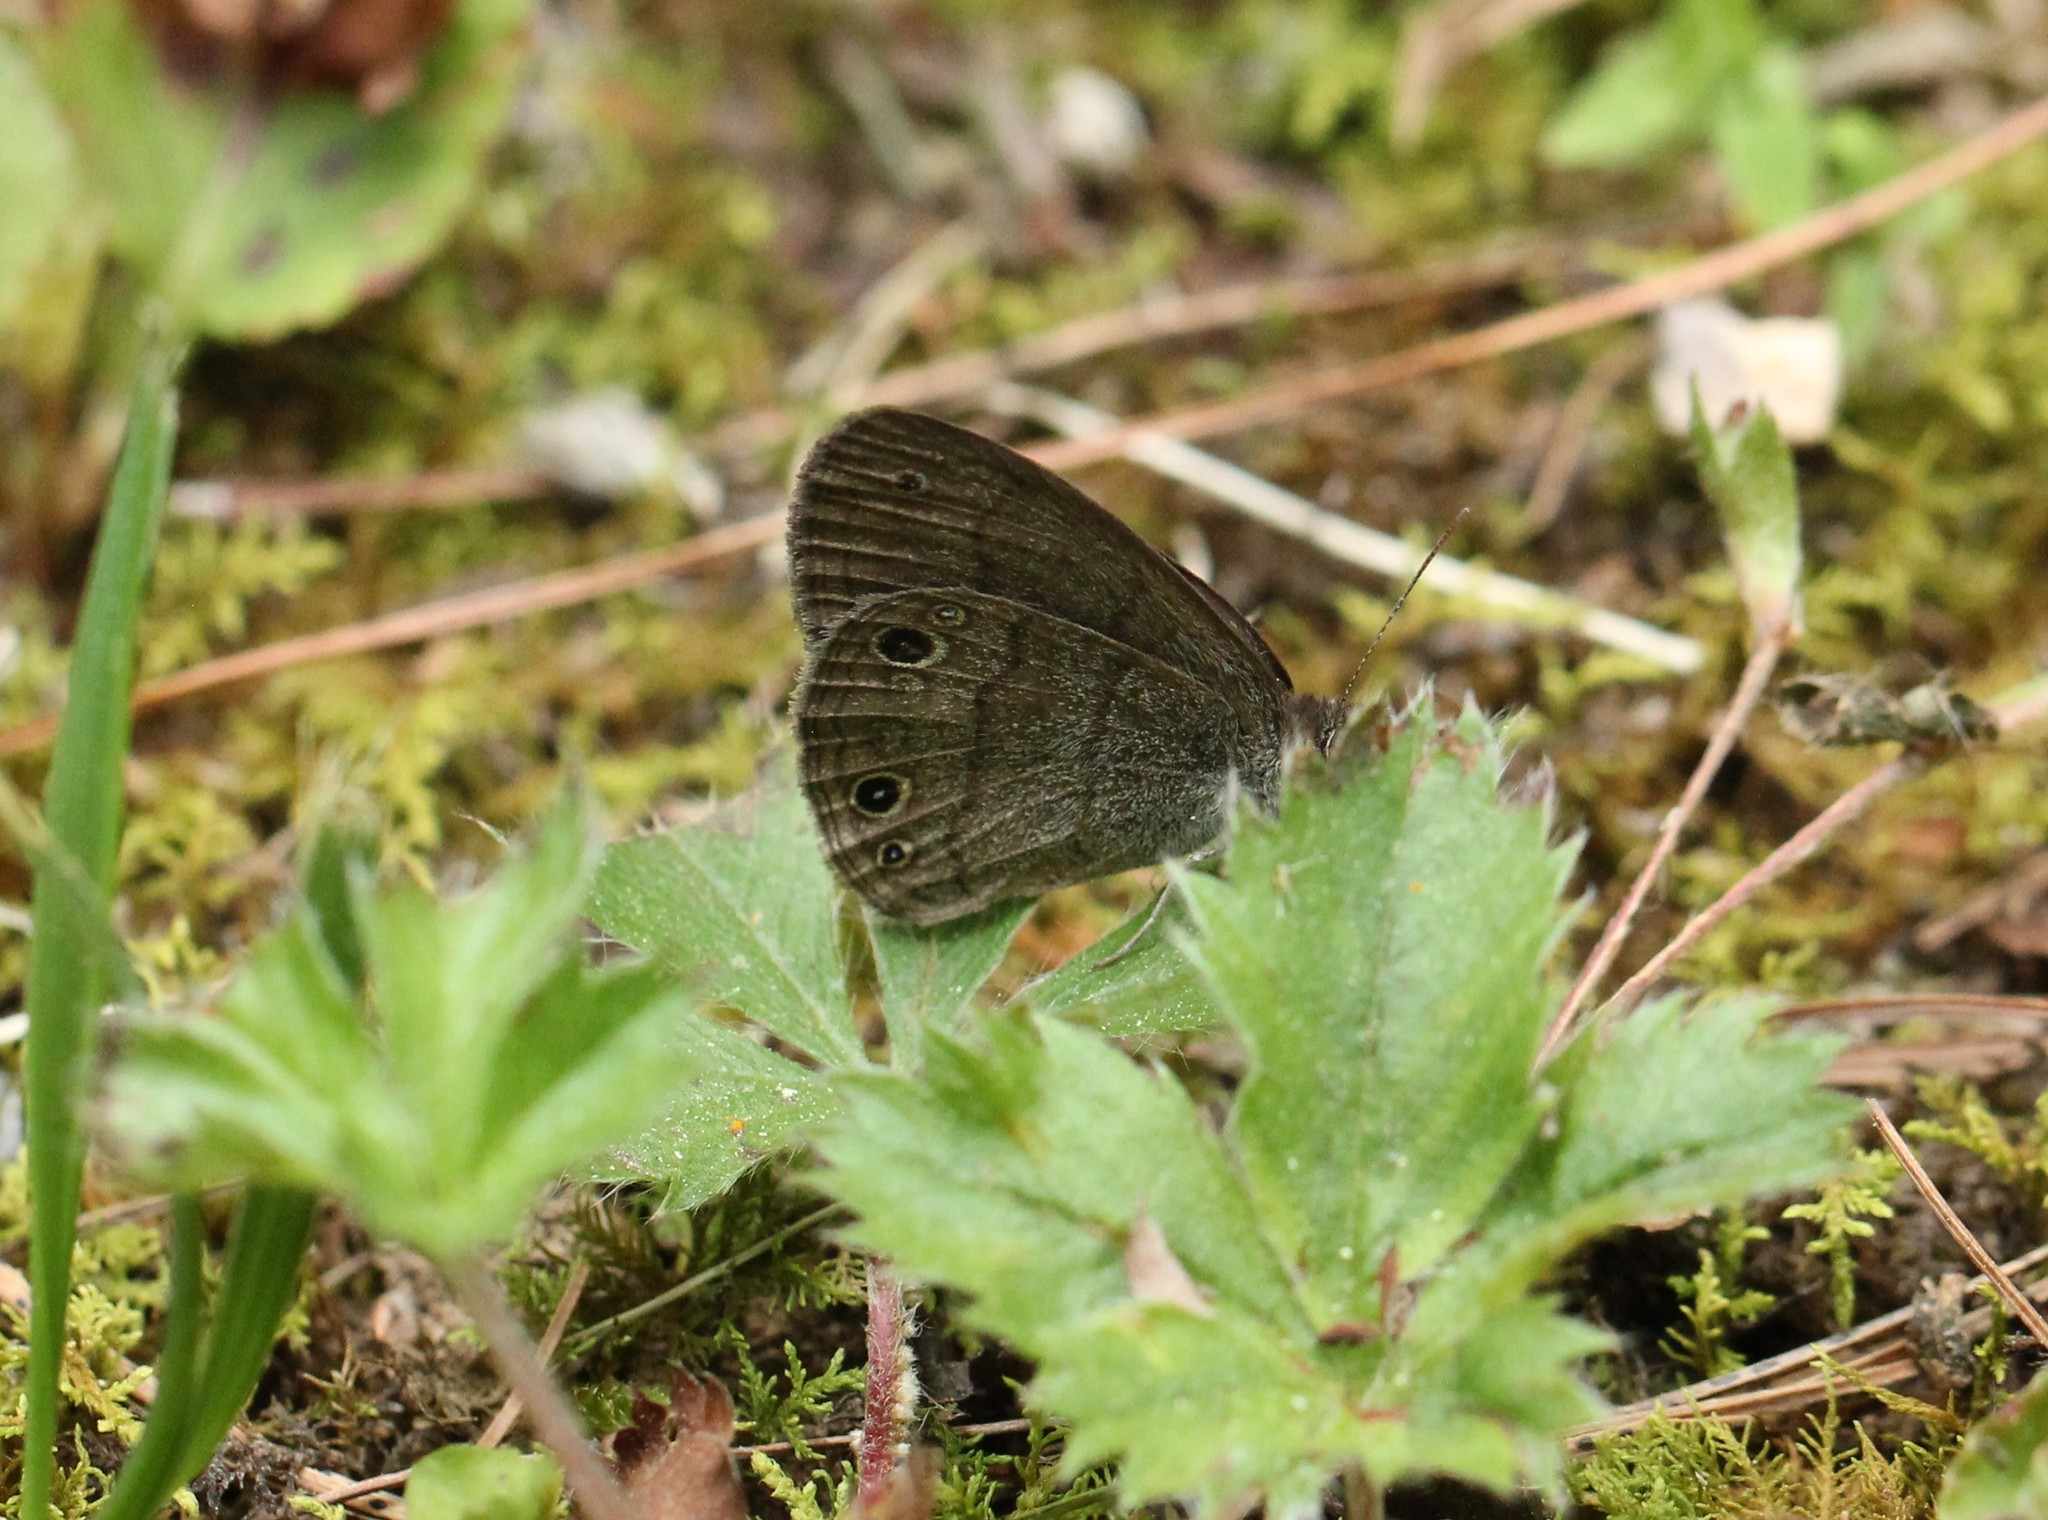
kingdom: Animalia
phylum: Arthropoda
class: Insecta
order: Lepidoptera
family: Nymphalidae
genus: Hermeuptychia
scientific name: Hermeuptychia hermes
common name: Hermes satyr
